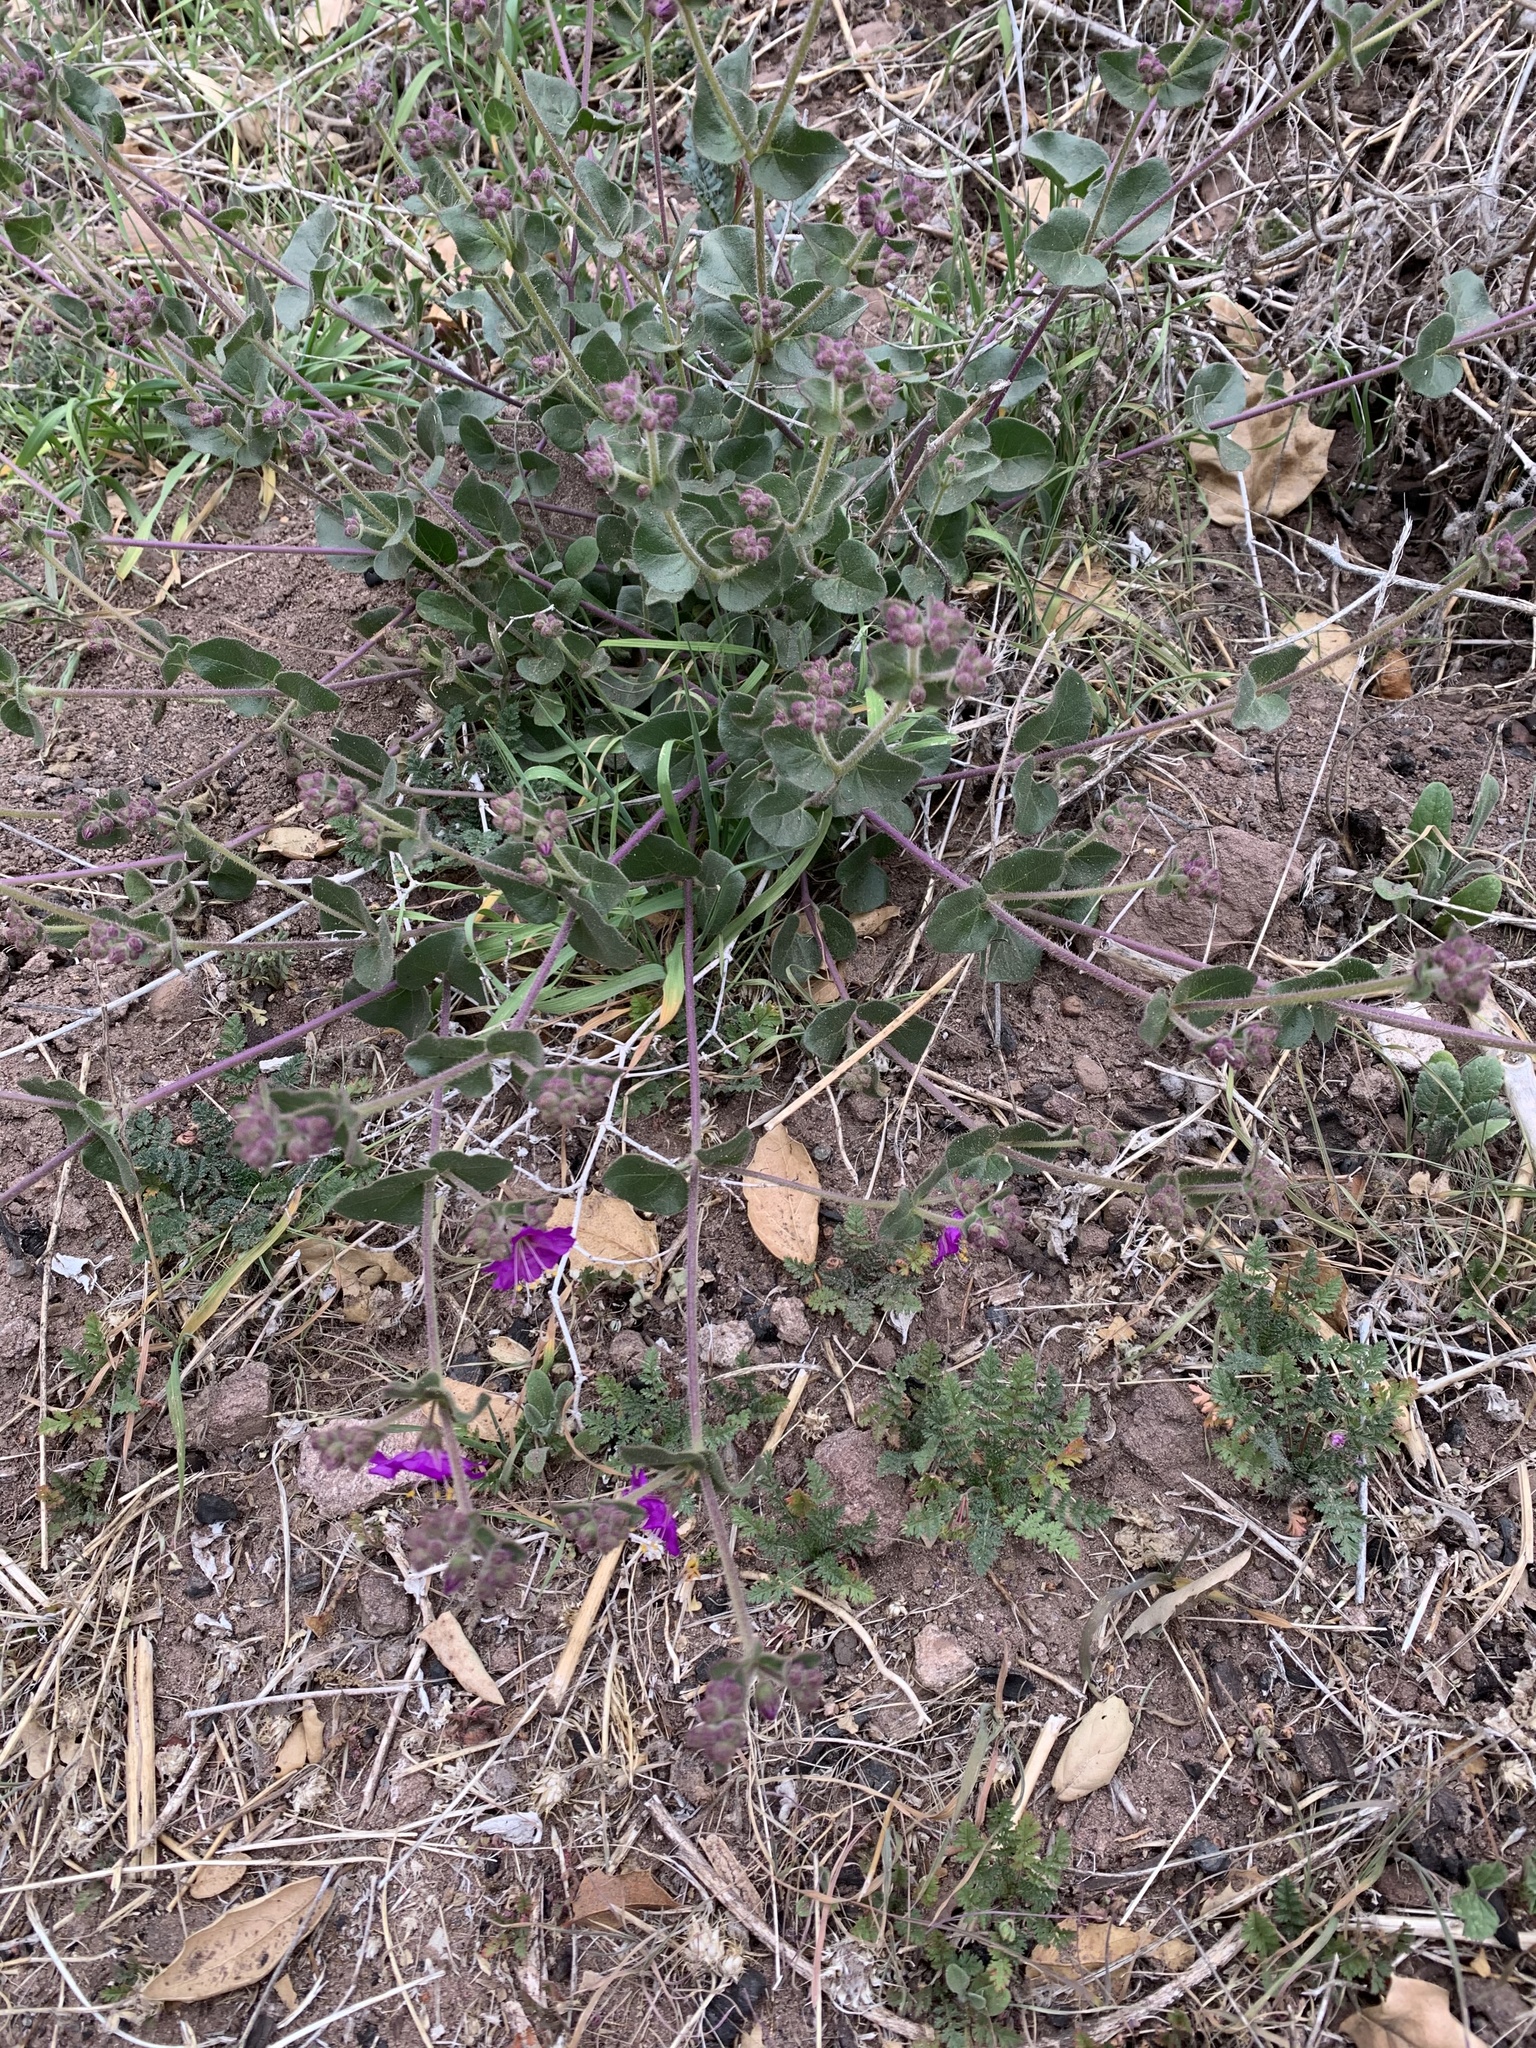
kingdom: Plantae
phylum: Tracheophyta
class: Magnoliopsida
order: Caryophyllales
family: Nyctaginaceae
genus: Mirabilis
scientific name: Mirabilis laevis
